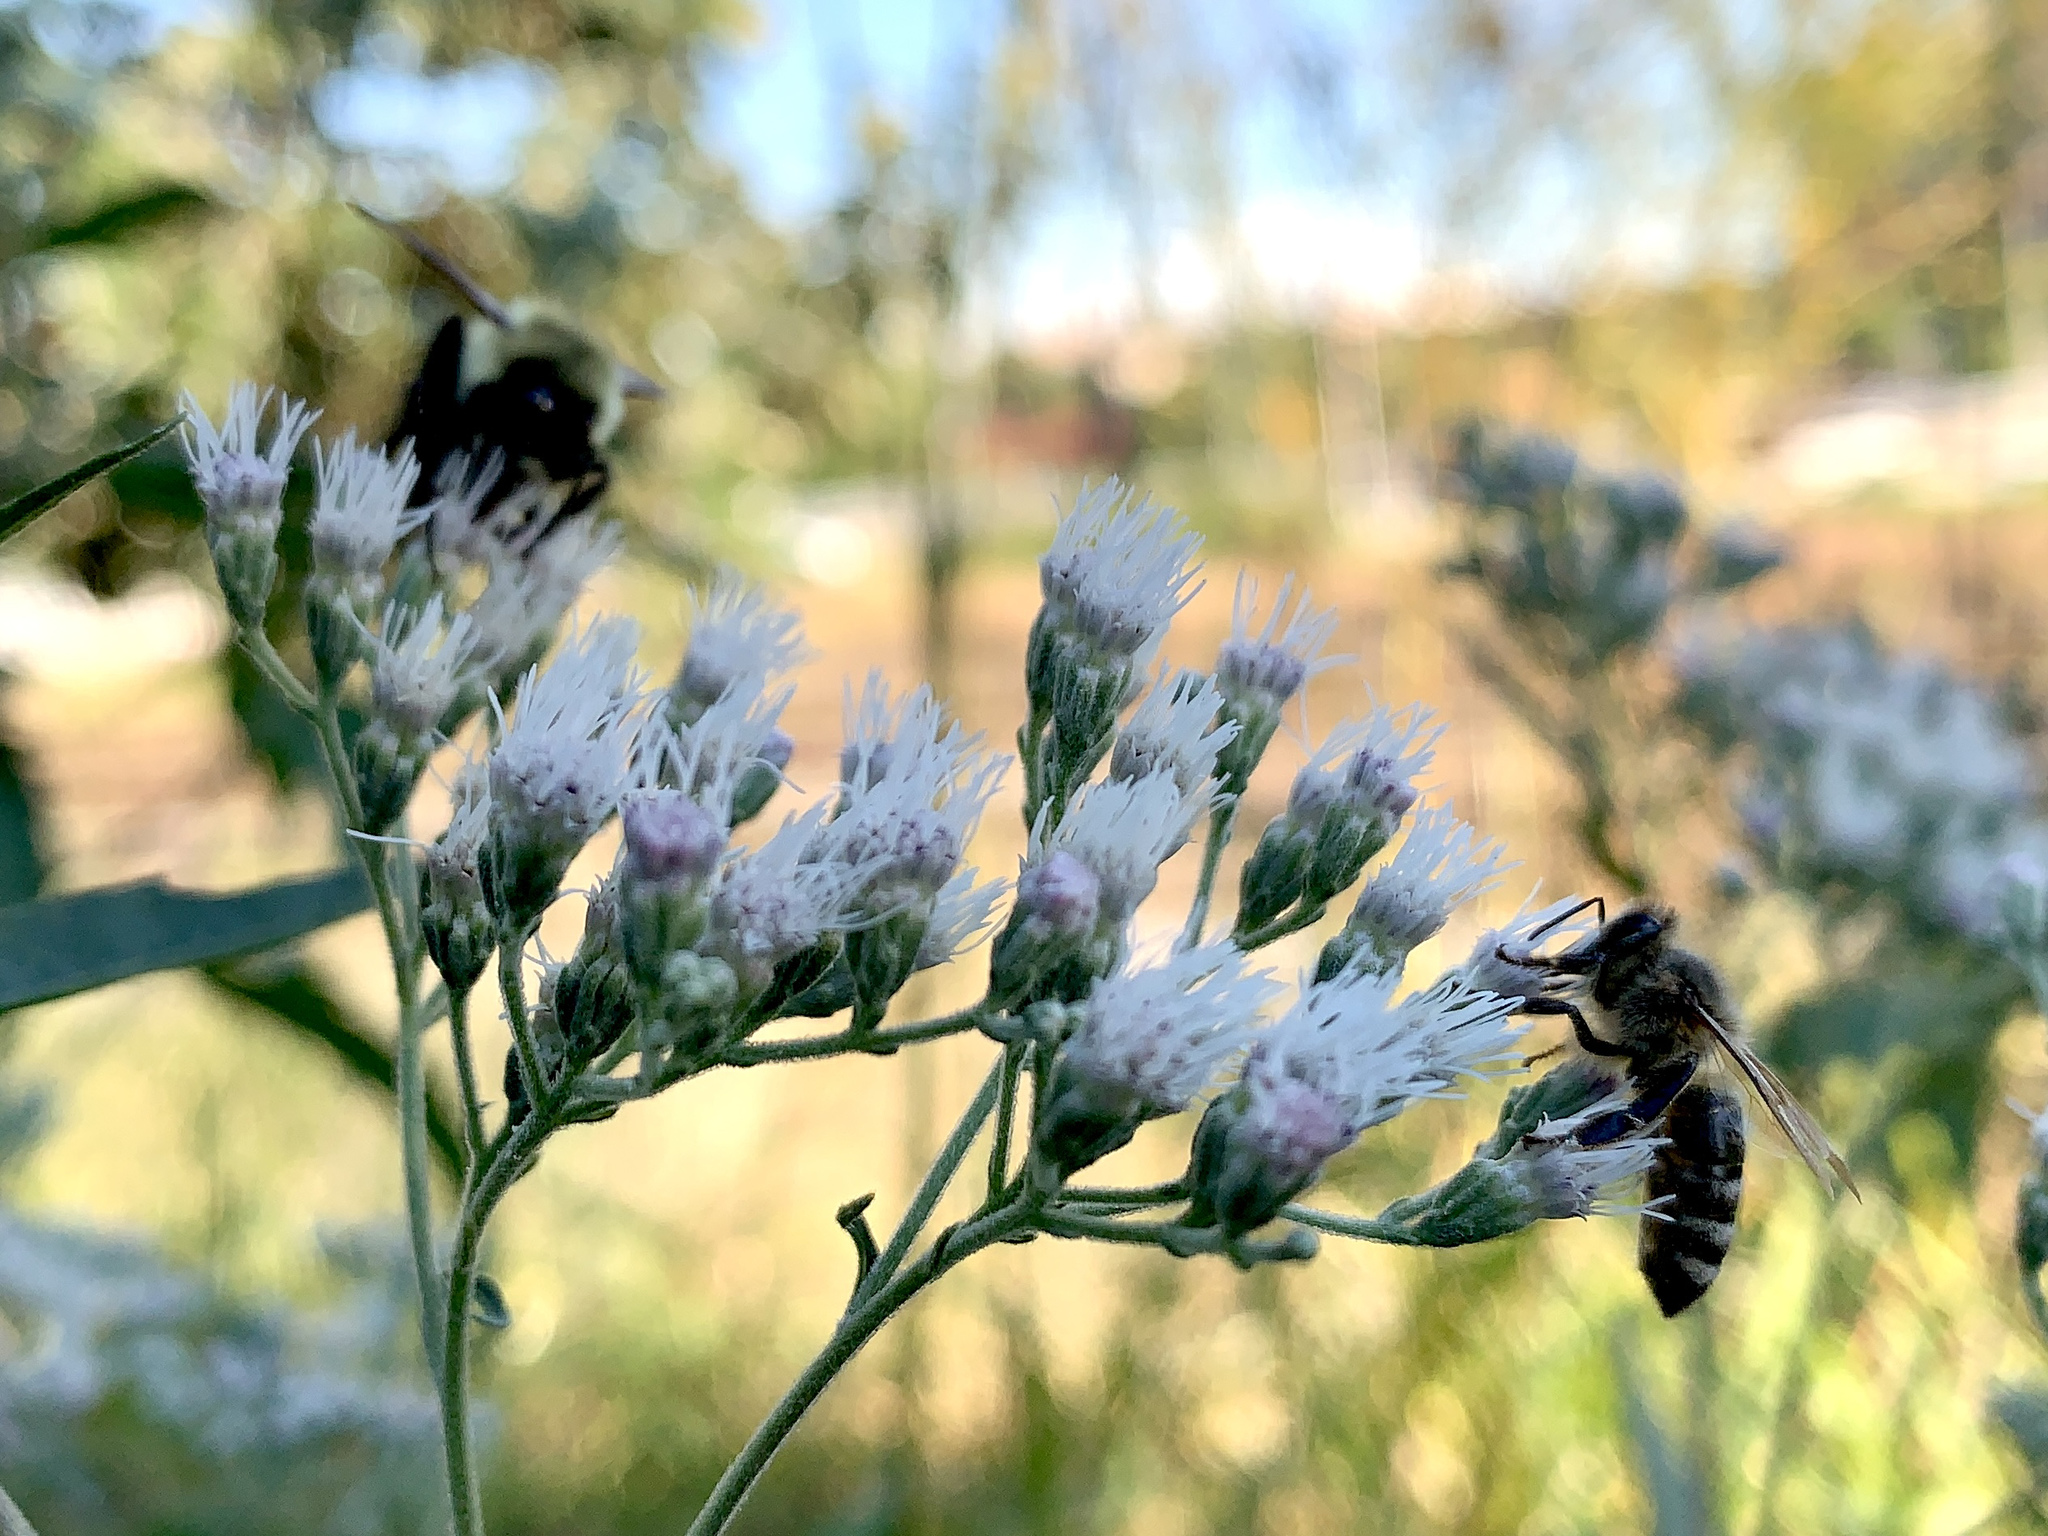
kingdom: Animalia
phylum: Arthropoda
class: Insecta
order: Hymenoptera
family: Apidae
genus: Apis
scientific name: Apis mellifera
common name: Honey bee
